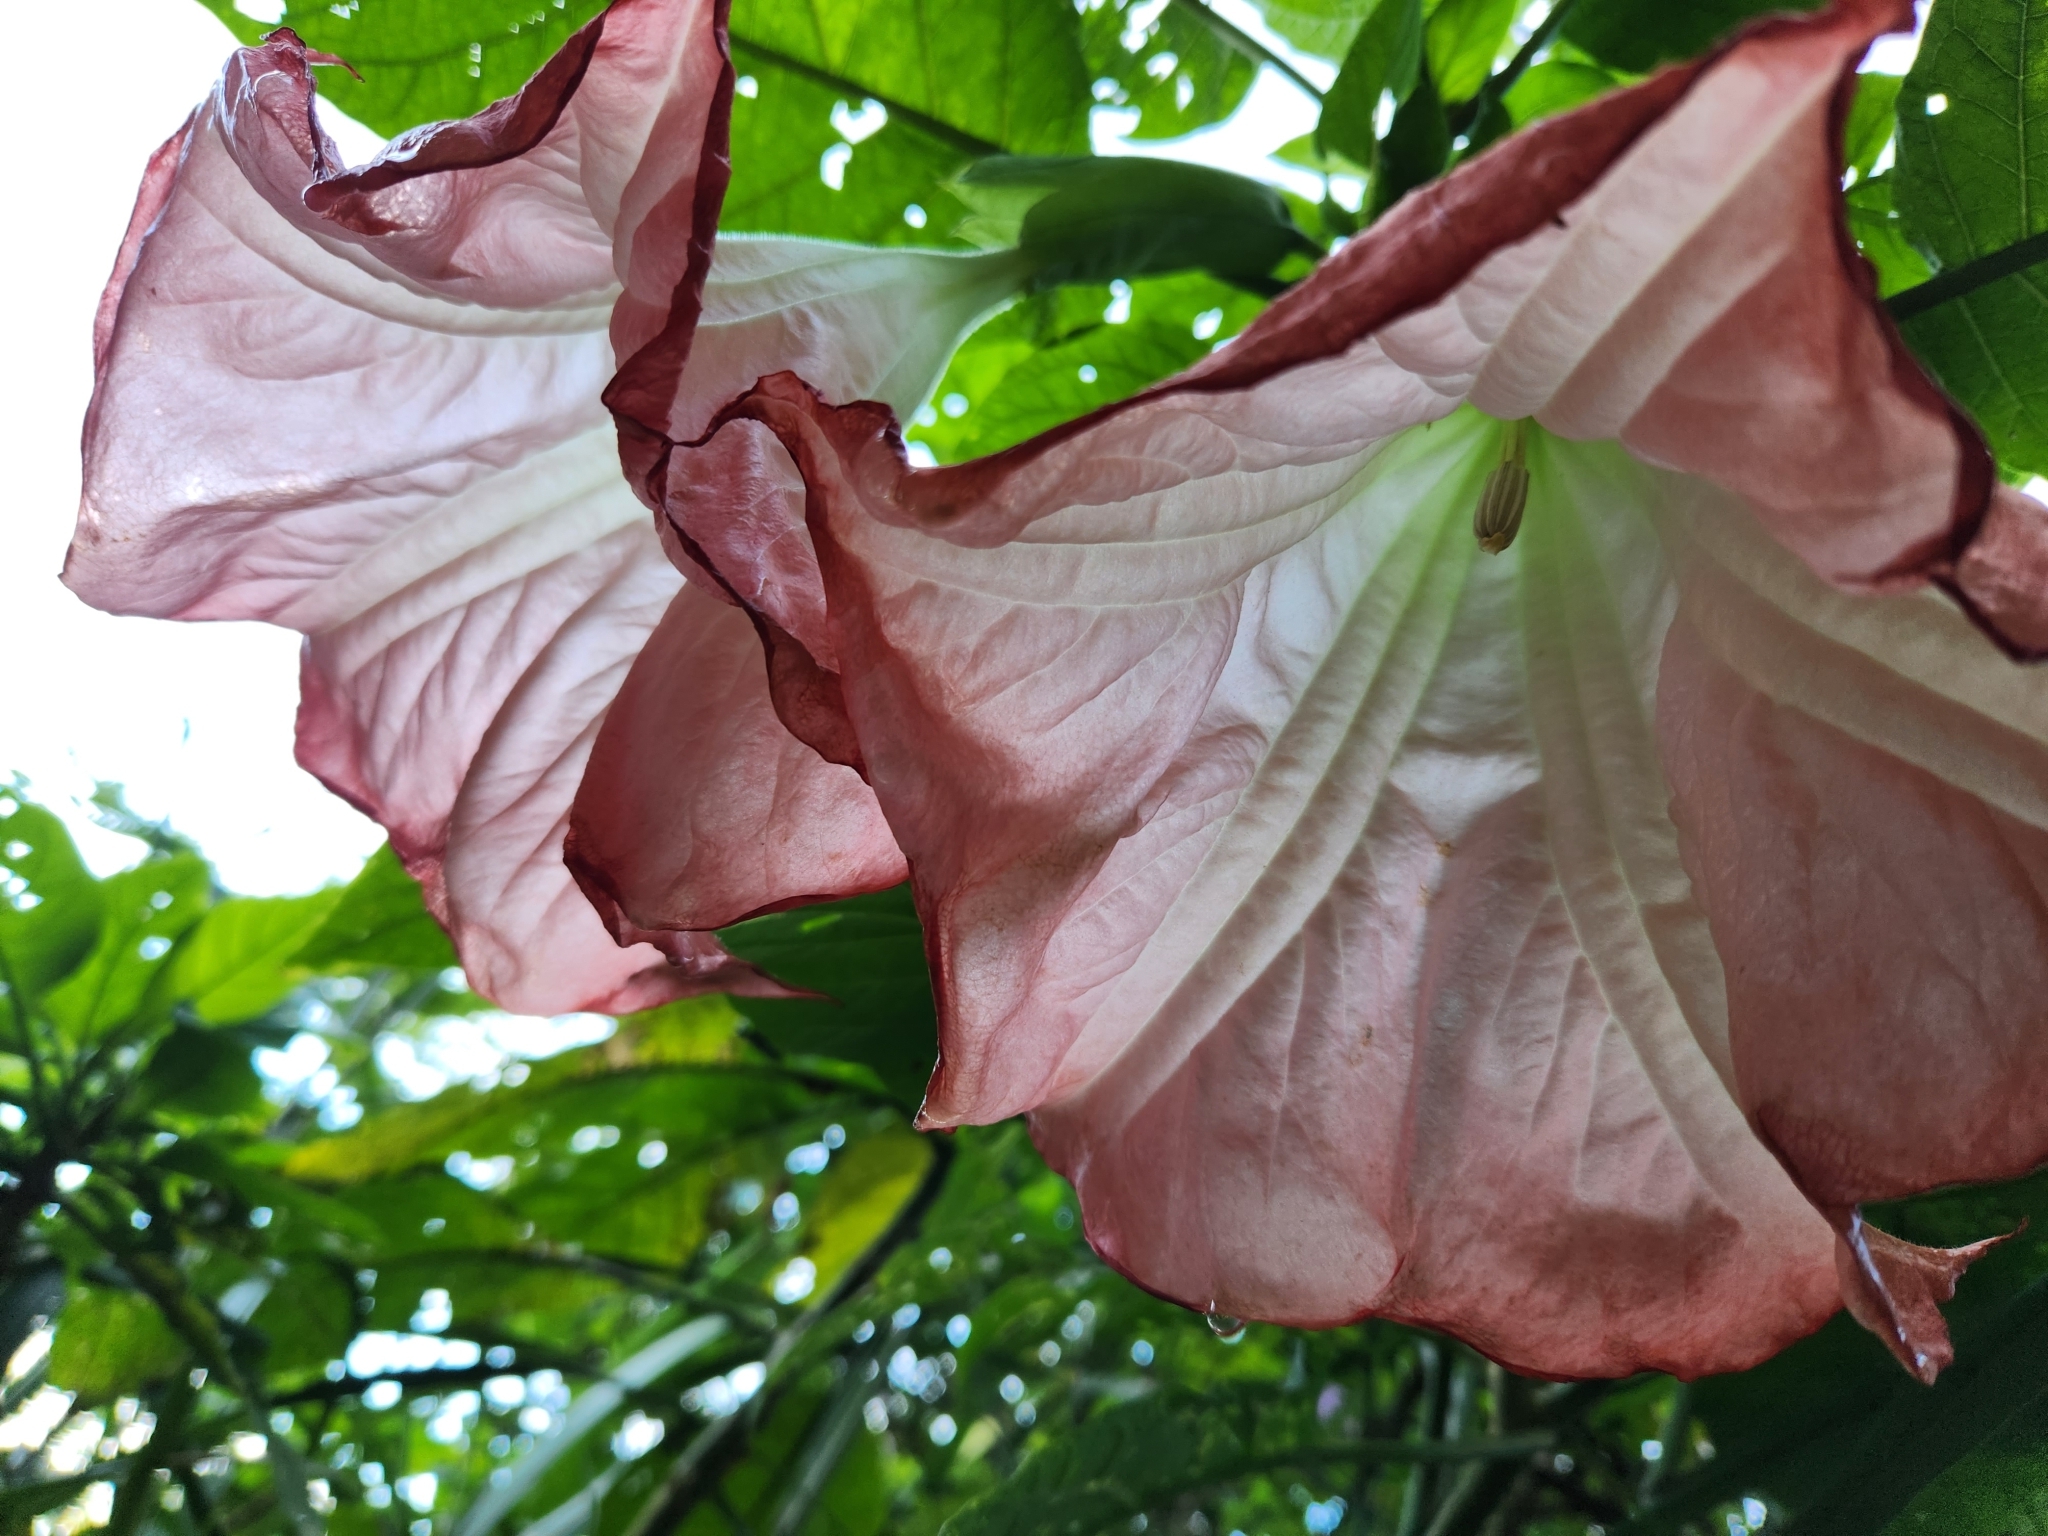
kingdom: Plantae
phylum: Tracheophyta
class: Magnoliopsida
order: Solanales
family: Solanaceae
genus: Brugmansia
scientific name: Brugmansia suaveolens
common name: Angel's tears
